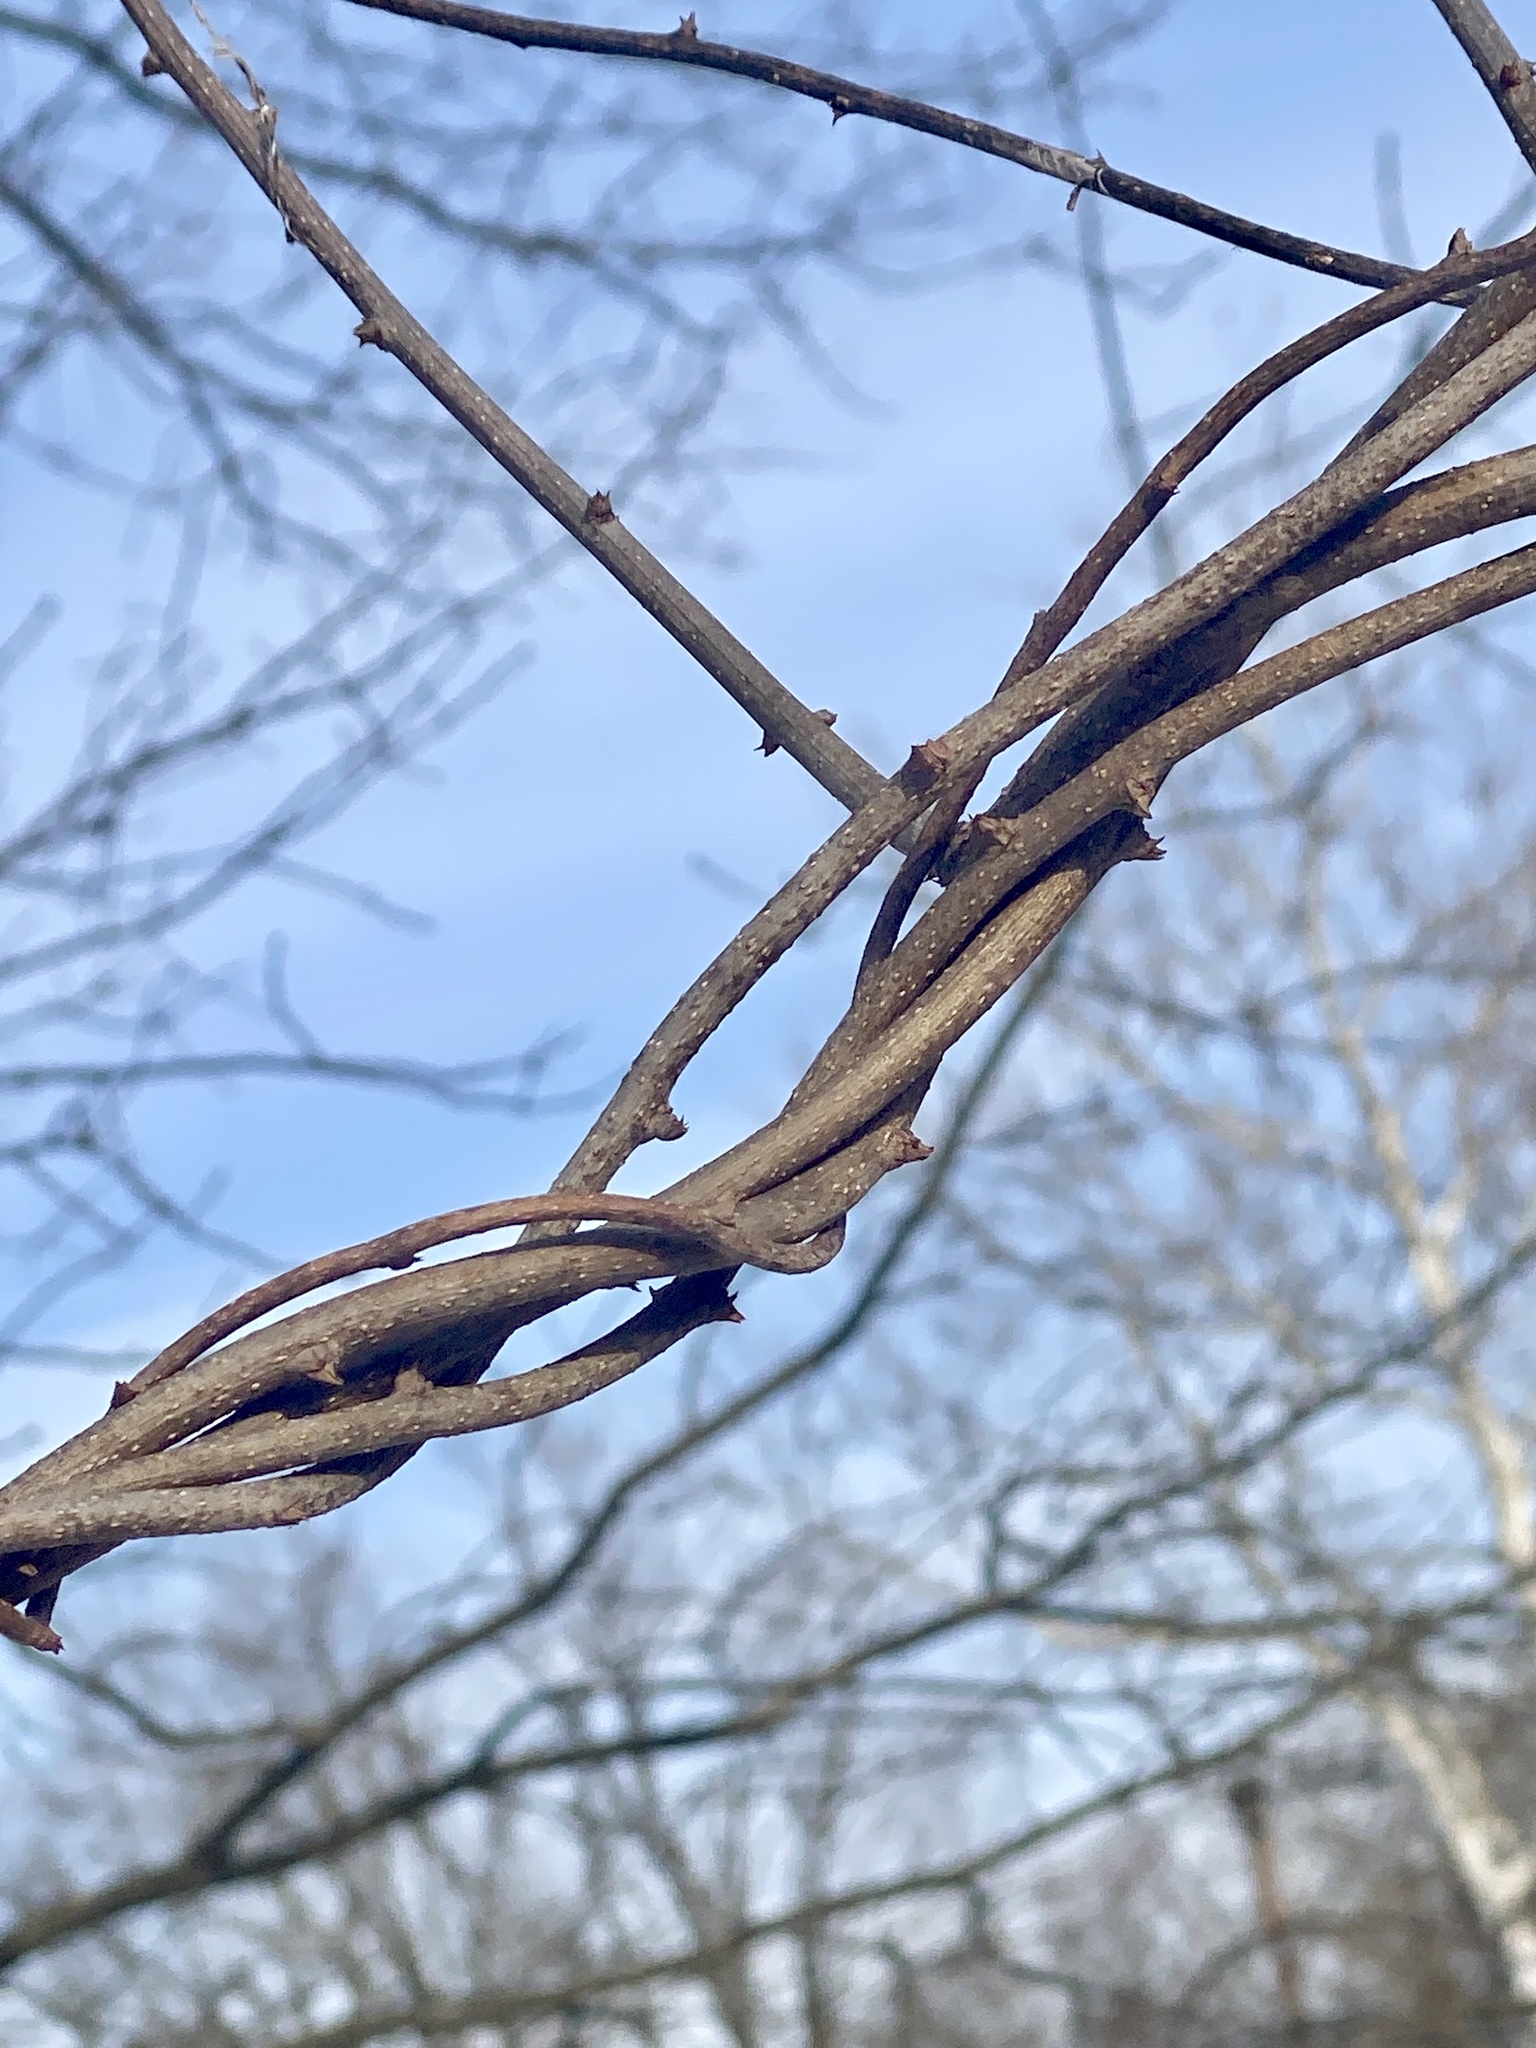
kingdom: Plantae
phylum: Tracheophyta
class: Magnoliopsida
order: Celastrales
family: Celastraceae
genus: Celastrus
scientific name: Celastrus orbiculatus
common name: Oriental bittersweet
